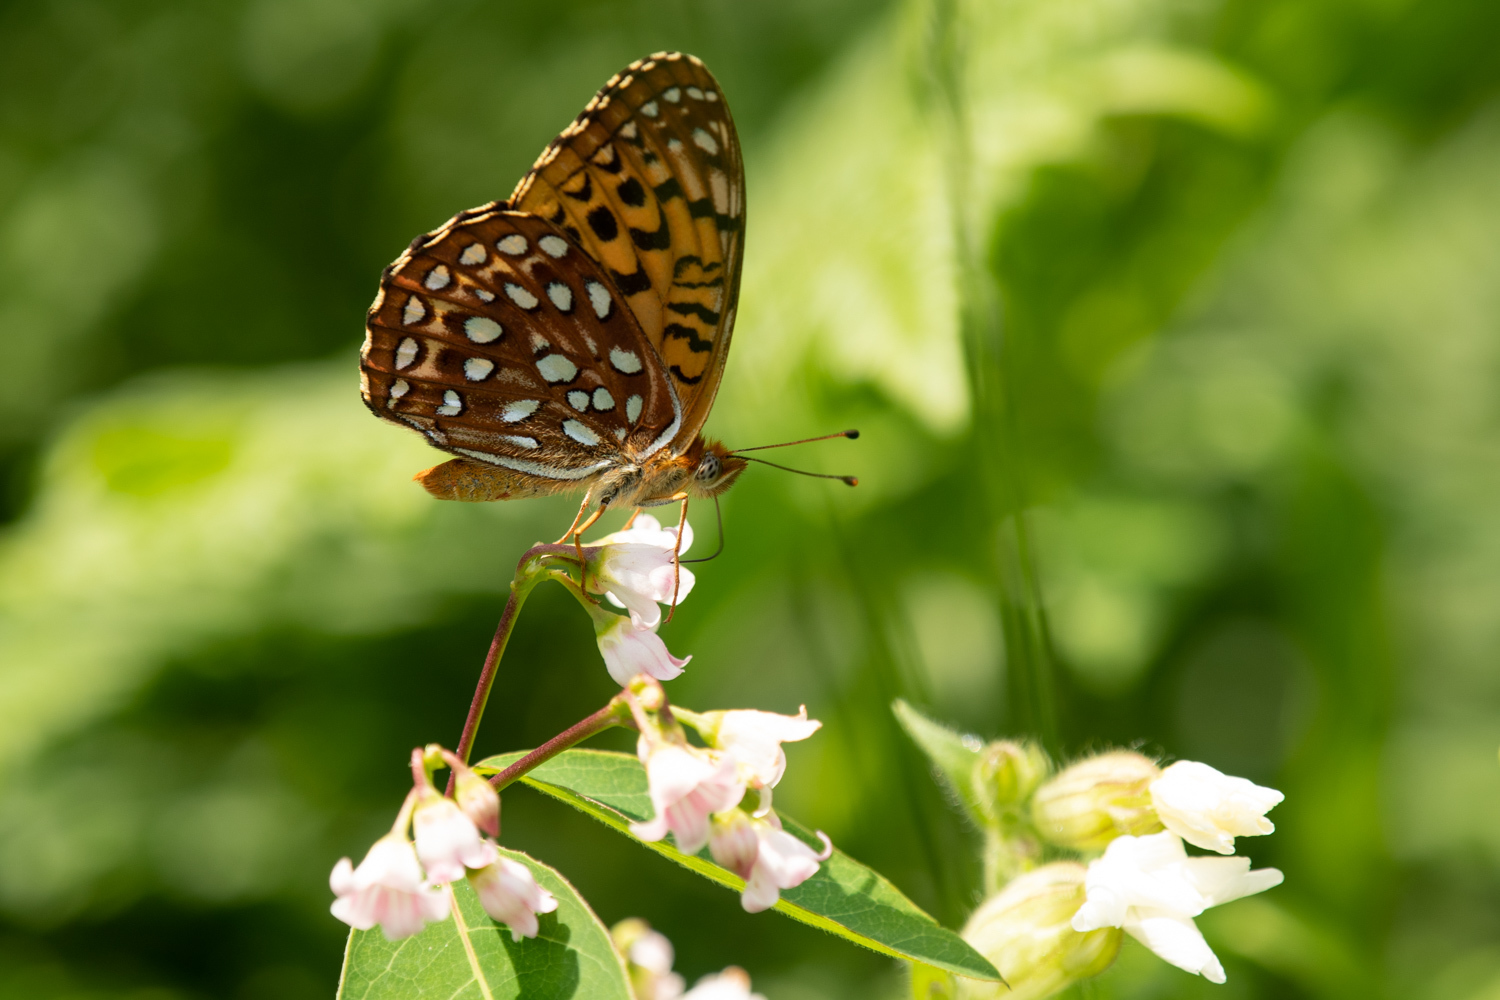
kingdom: Animalia
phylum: Arthropoda
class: Insecta
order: Lepidoptera
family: Nymphalidae
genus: Speyeria
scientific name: Speyeria atlantis
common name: Atlantis fritillary
